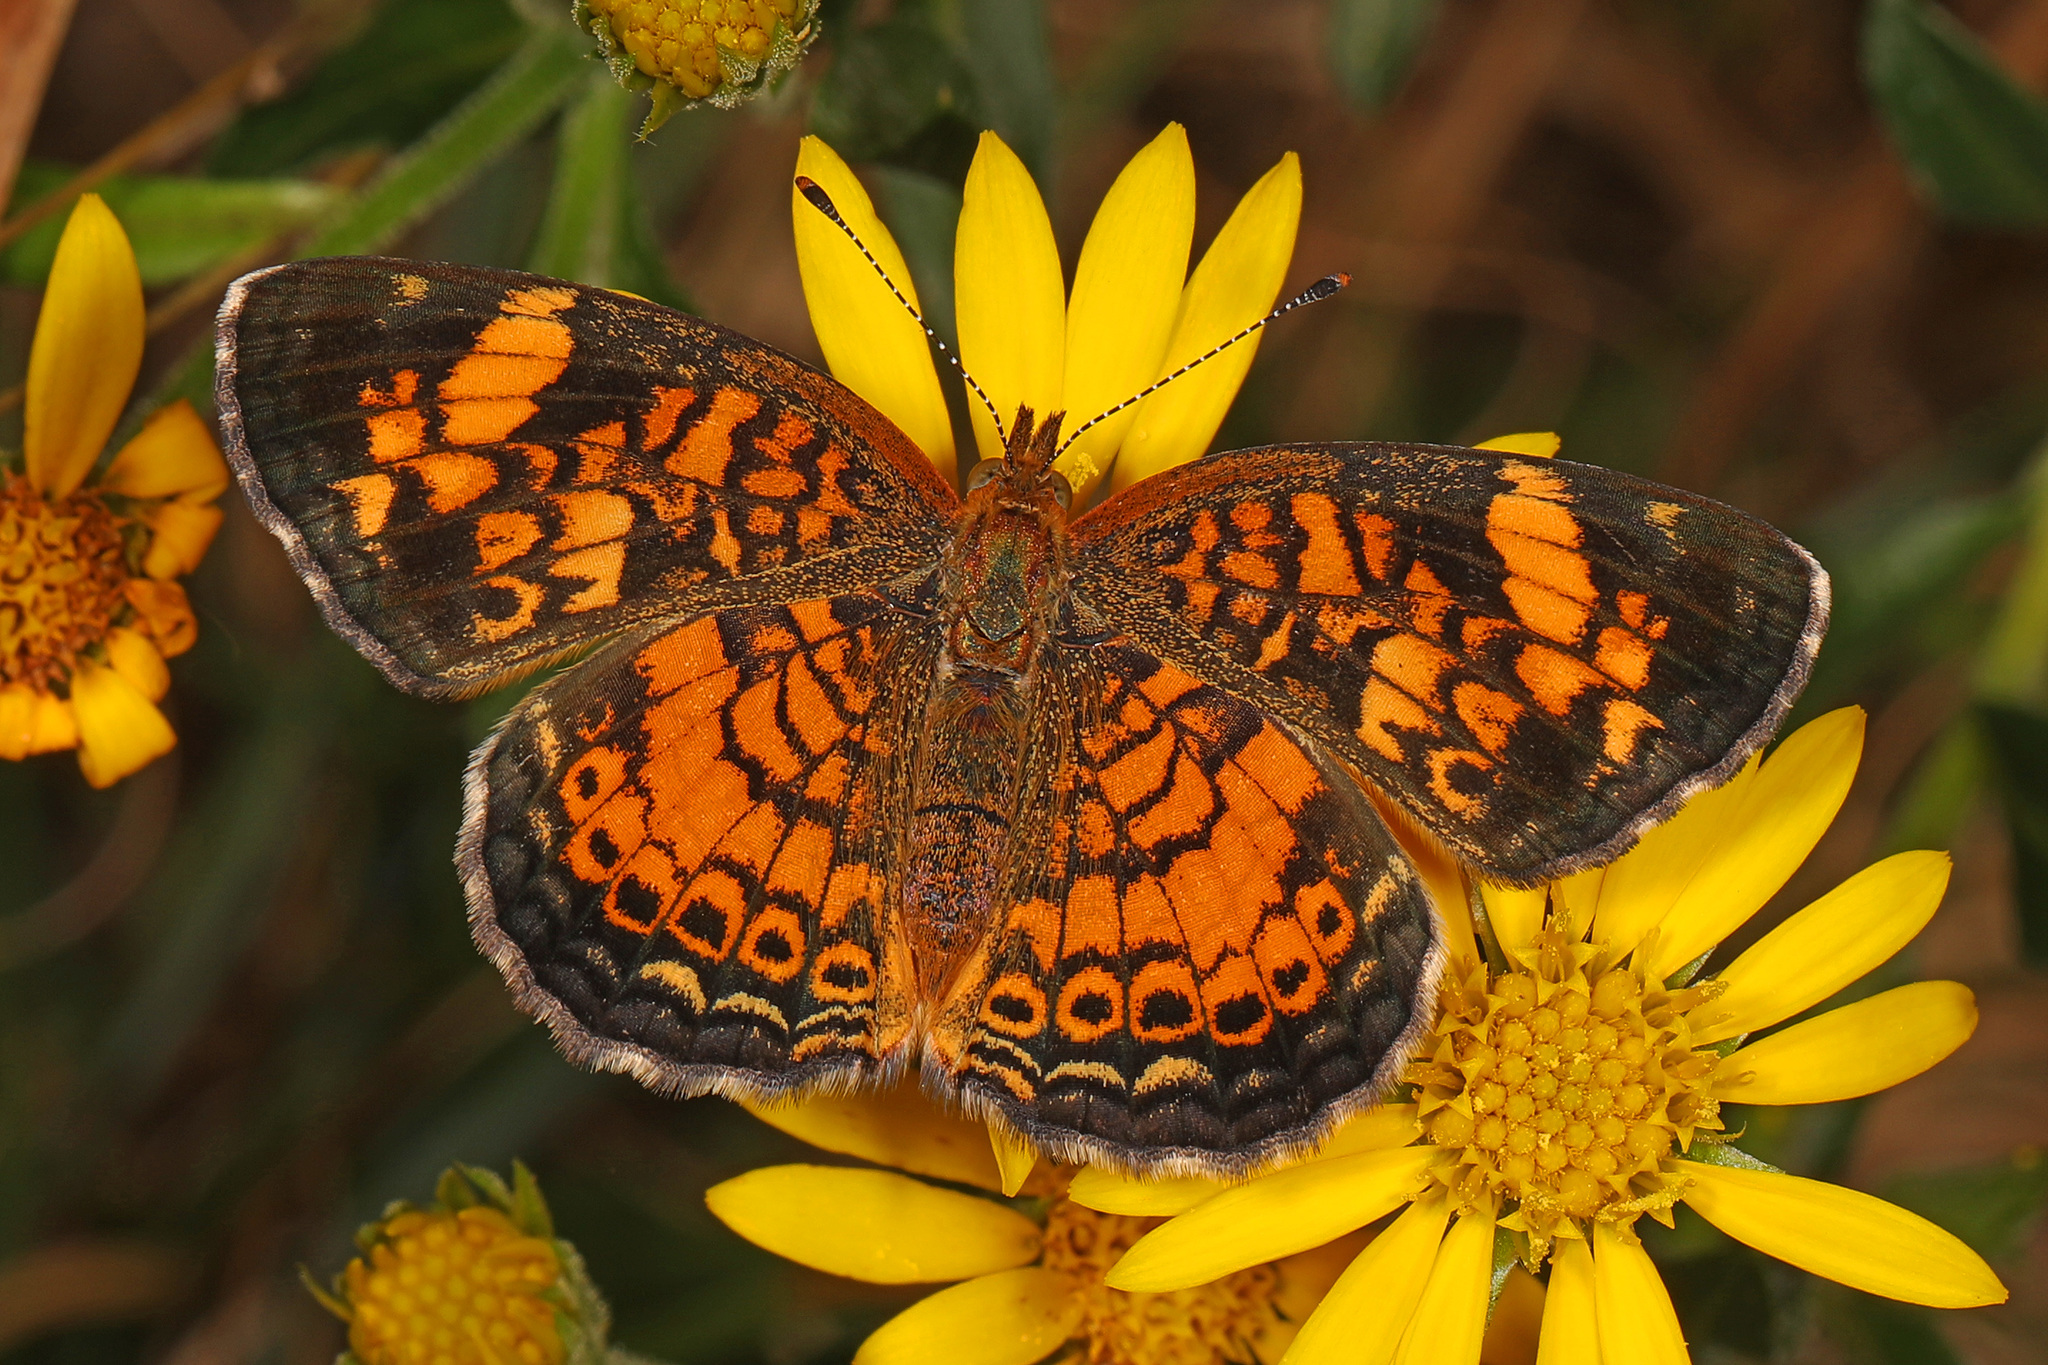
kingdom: Animalia
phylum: Arthropoda
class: Insecta
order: Lepidoptera
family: Nymphalidae
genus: Phyciodes
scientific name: Phyciodes tharos
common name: Pearl crescent
